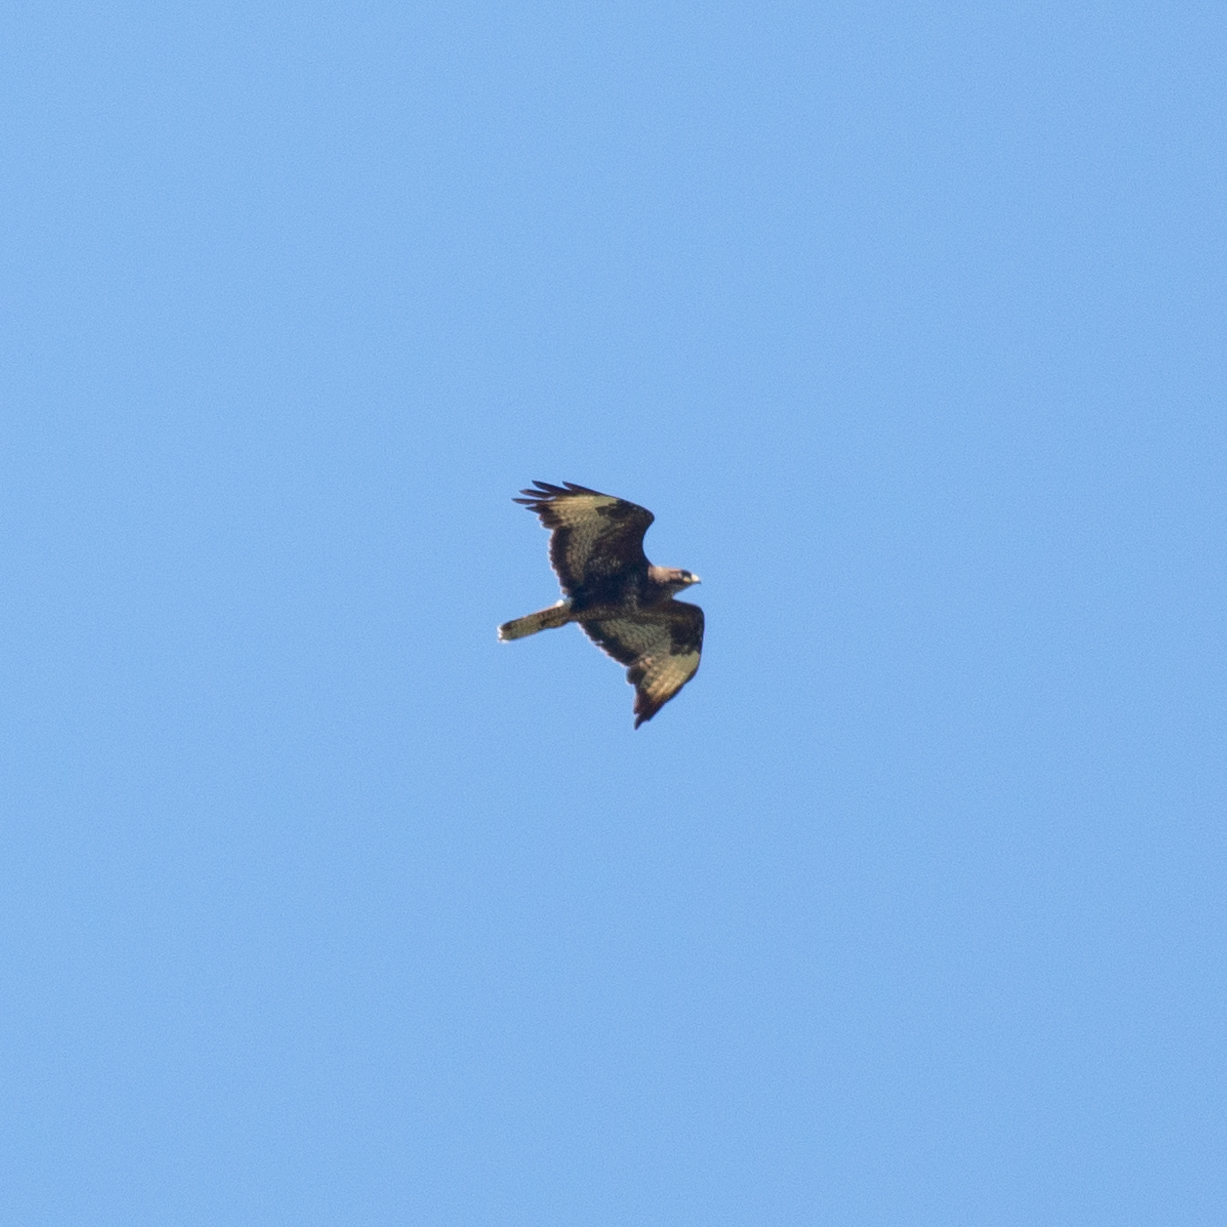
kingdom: Animalia
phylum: Chordata
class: Aves
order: Accipitriformes
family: Accipitridae
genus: Buteo
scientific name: Buteo buteo
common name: Common buzzard
